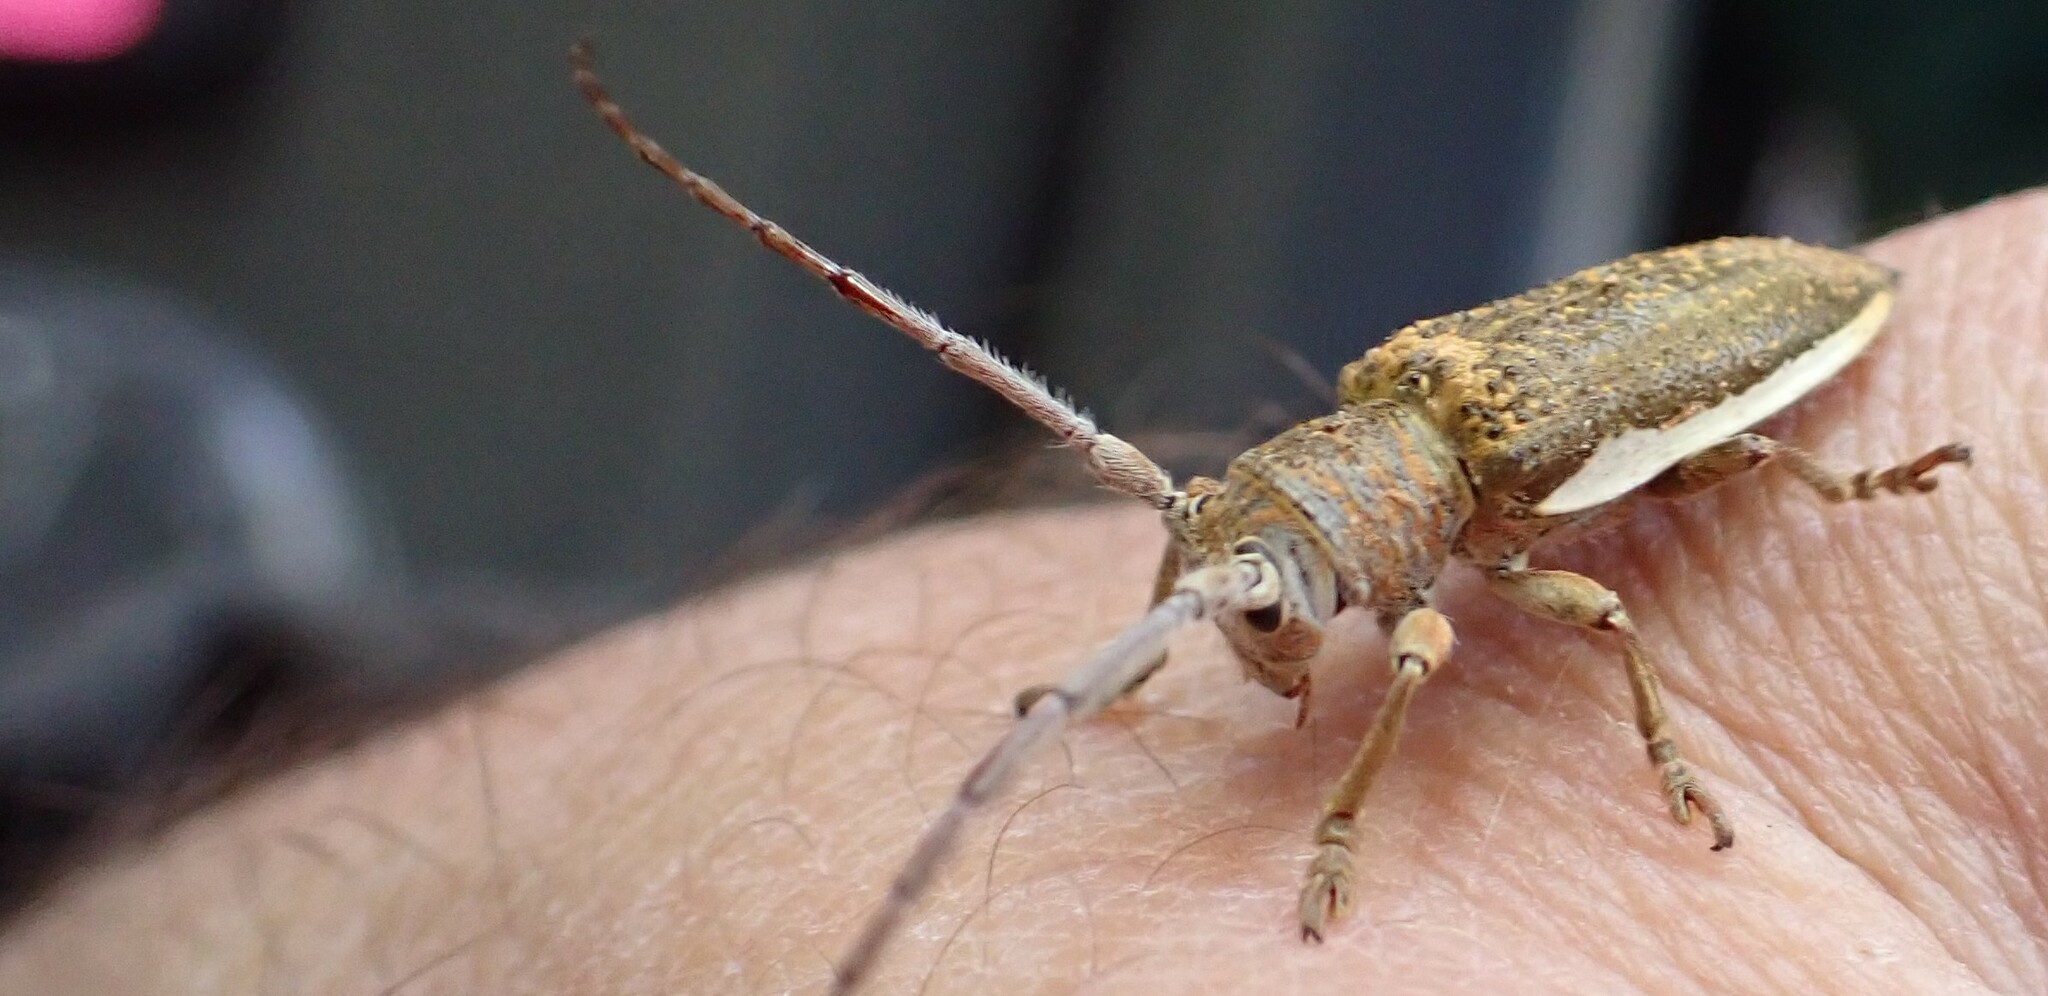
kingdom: Animalia
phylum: Arthropoda
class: Insecta
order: Coleoptera
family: Cerambycidae
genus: Rhytiphora
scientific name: Rhytiphora decipiens
